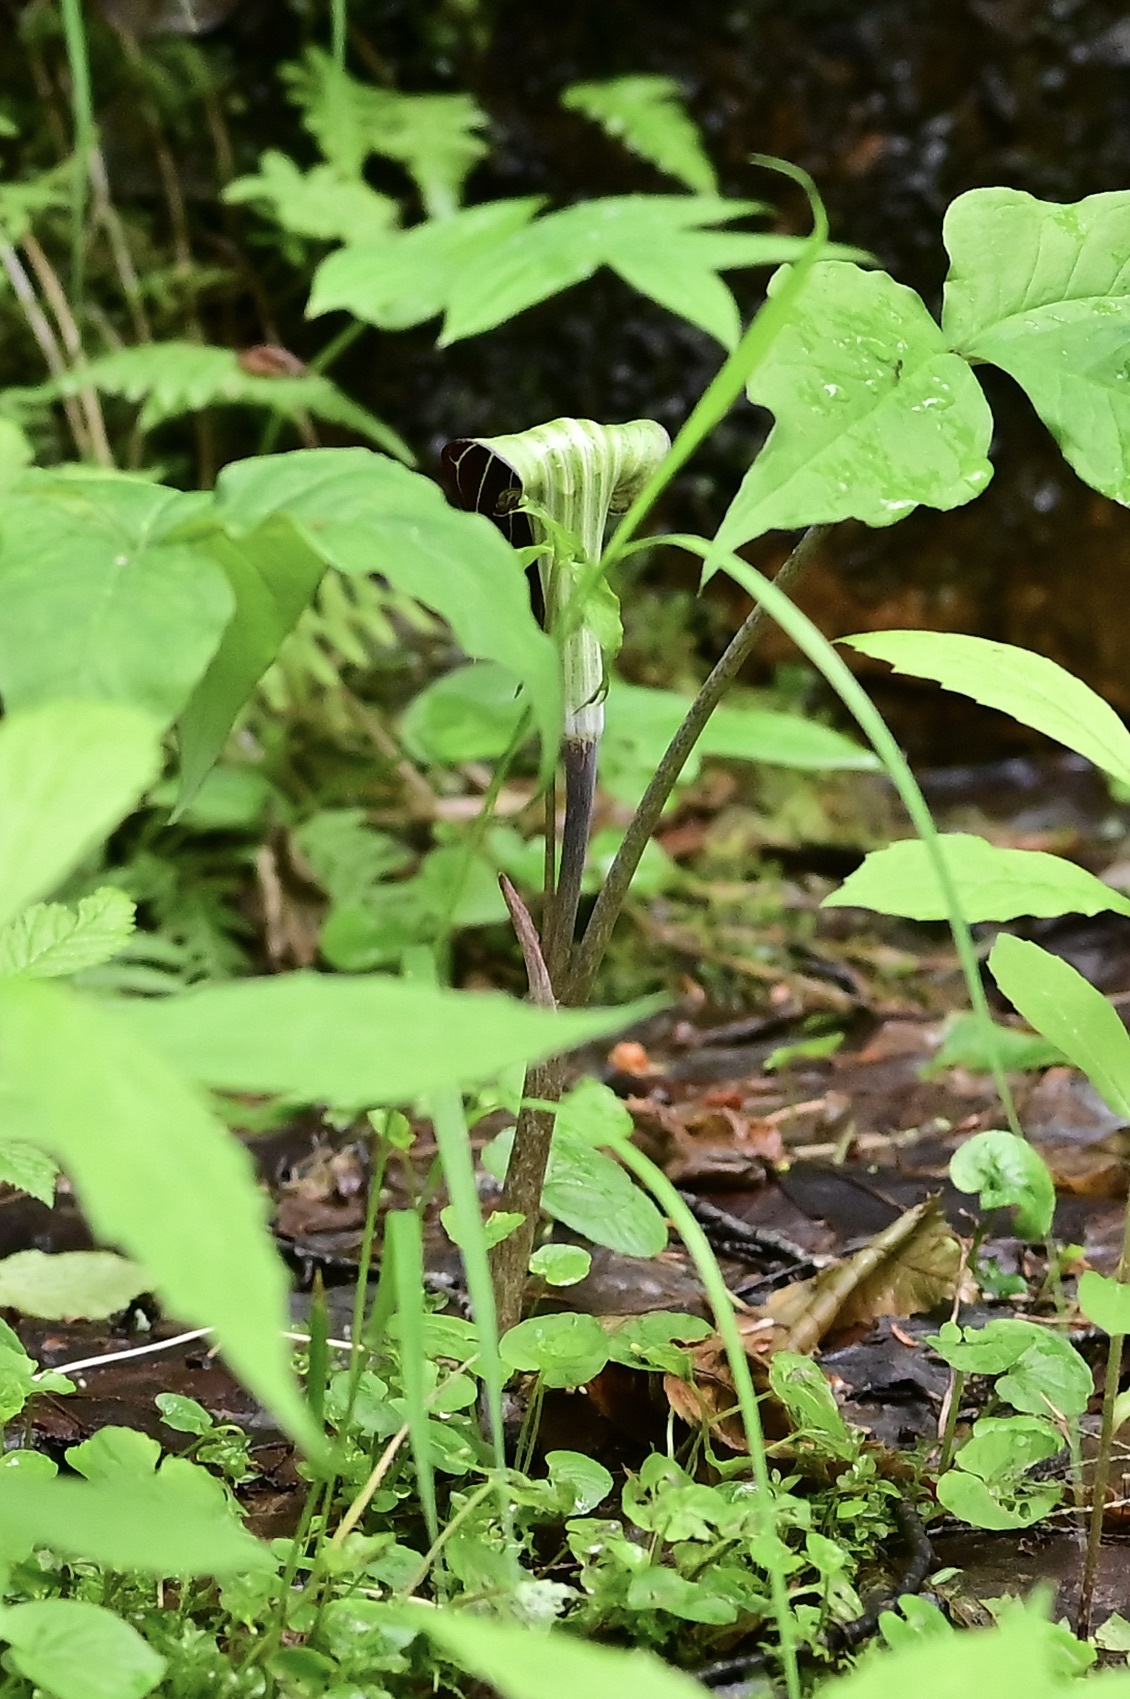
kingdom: Plantae
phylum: Tracheophyta
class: Liliopsida
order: Alismatales
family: Araceae
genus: Arisaema
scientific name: Arisaema triphyllum
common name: Jack-in-the-pulpit
